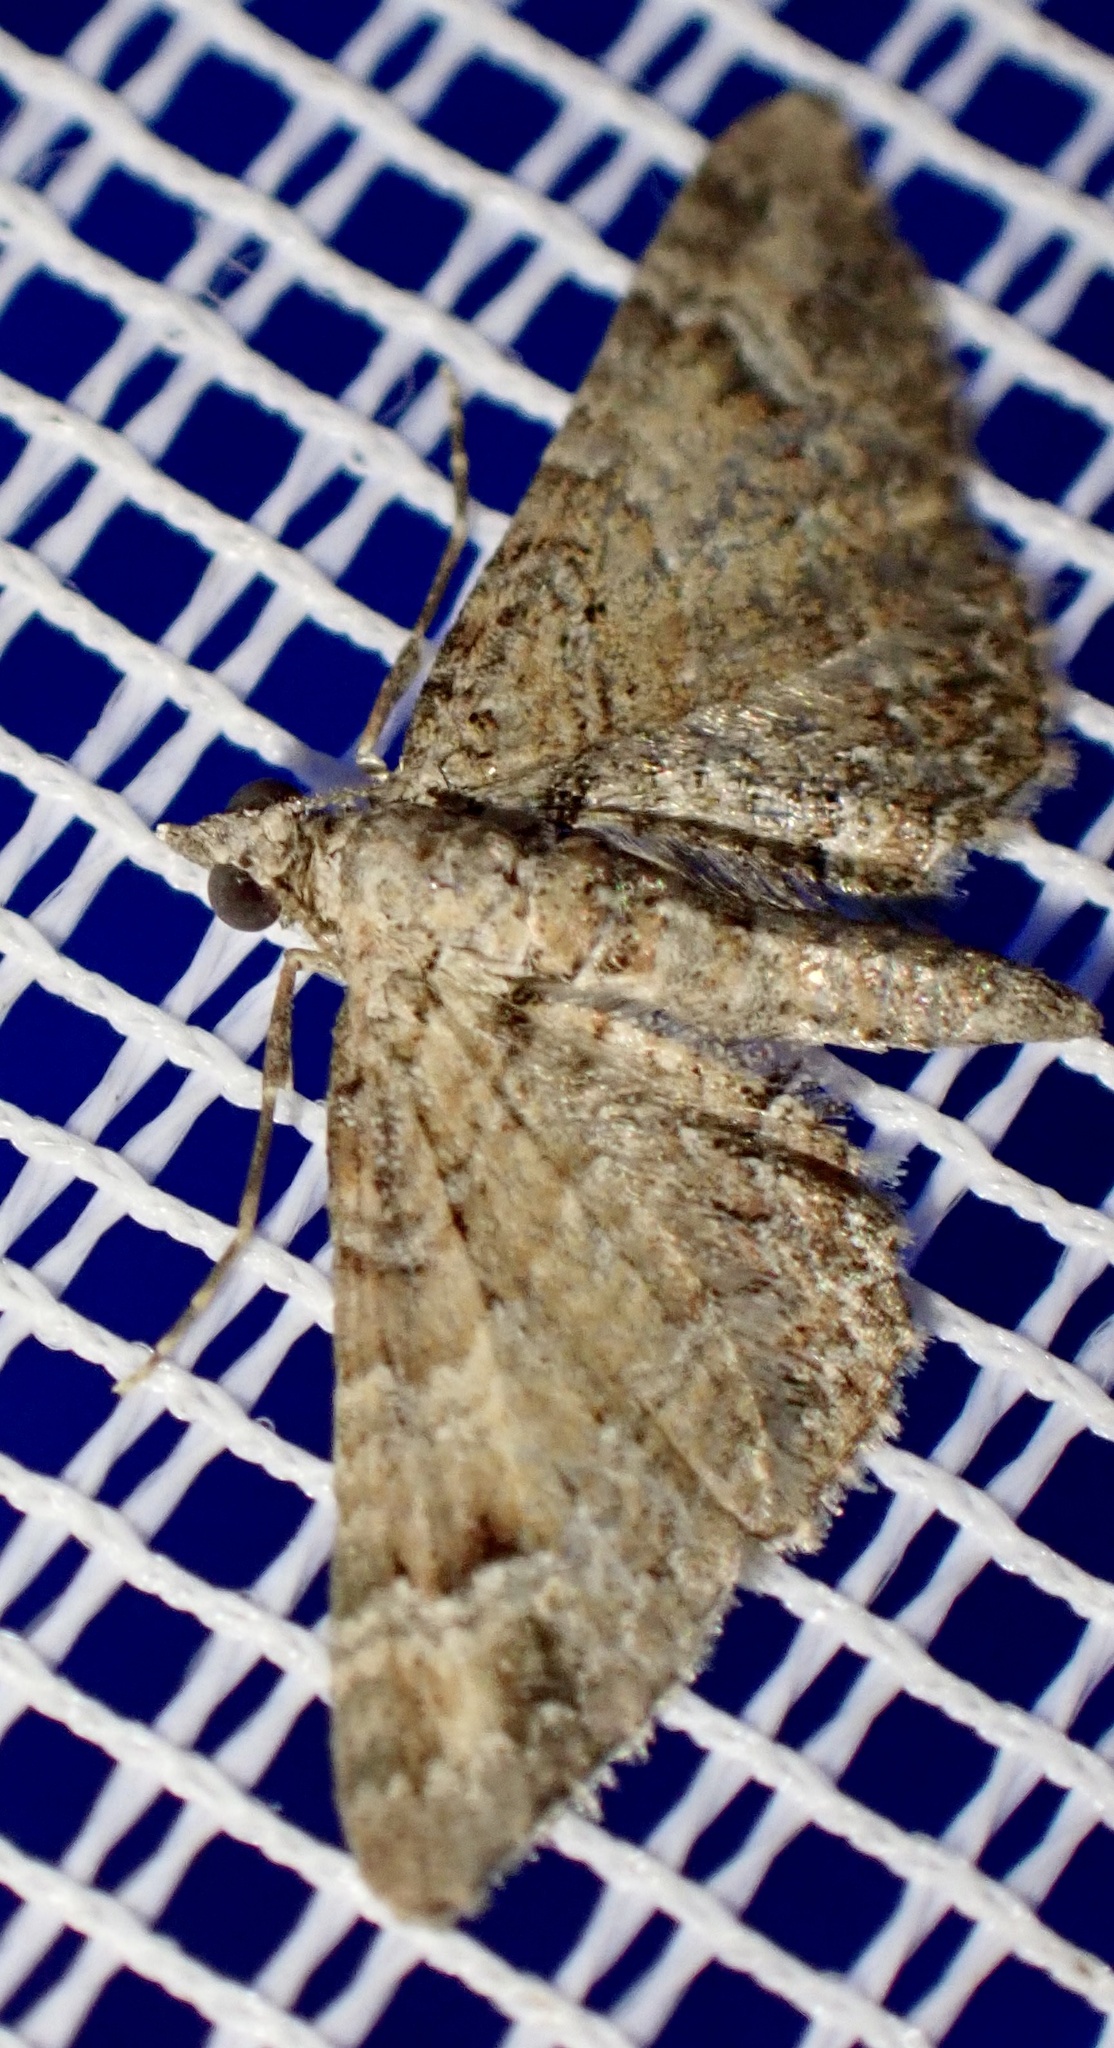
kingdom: Animalia
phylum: Arthropoda
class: Insecta
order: Lepidoptera
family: Geometridae
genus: Gymnoscelis
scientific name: Gymnoscelis rufifasciata
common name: Double-striped pug
